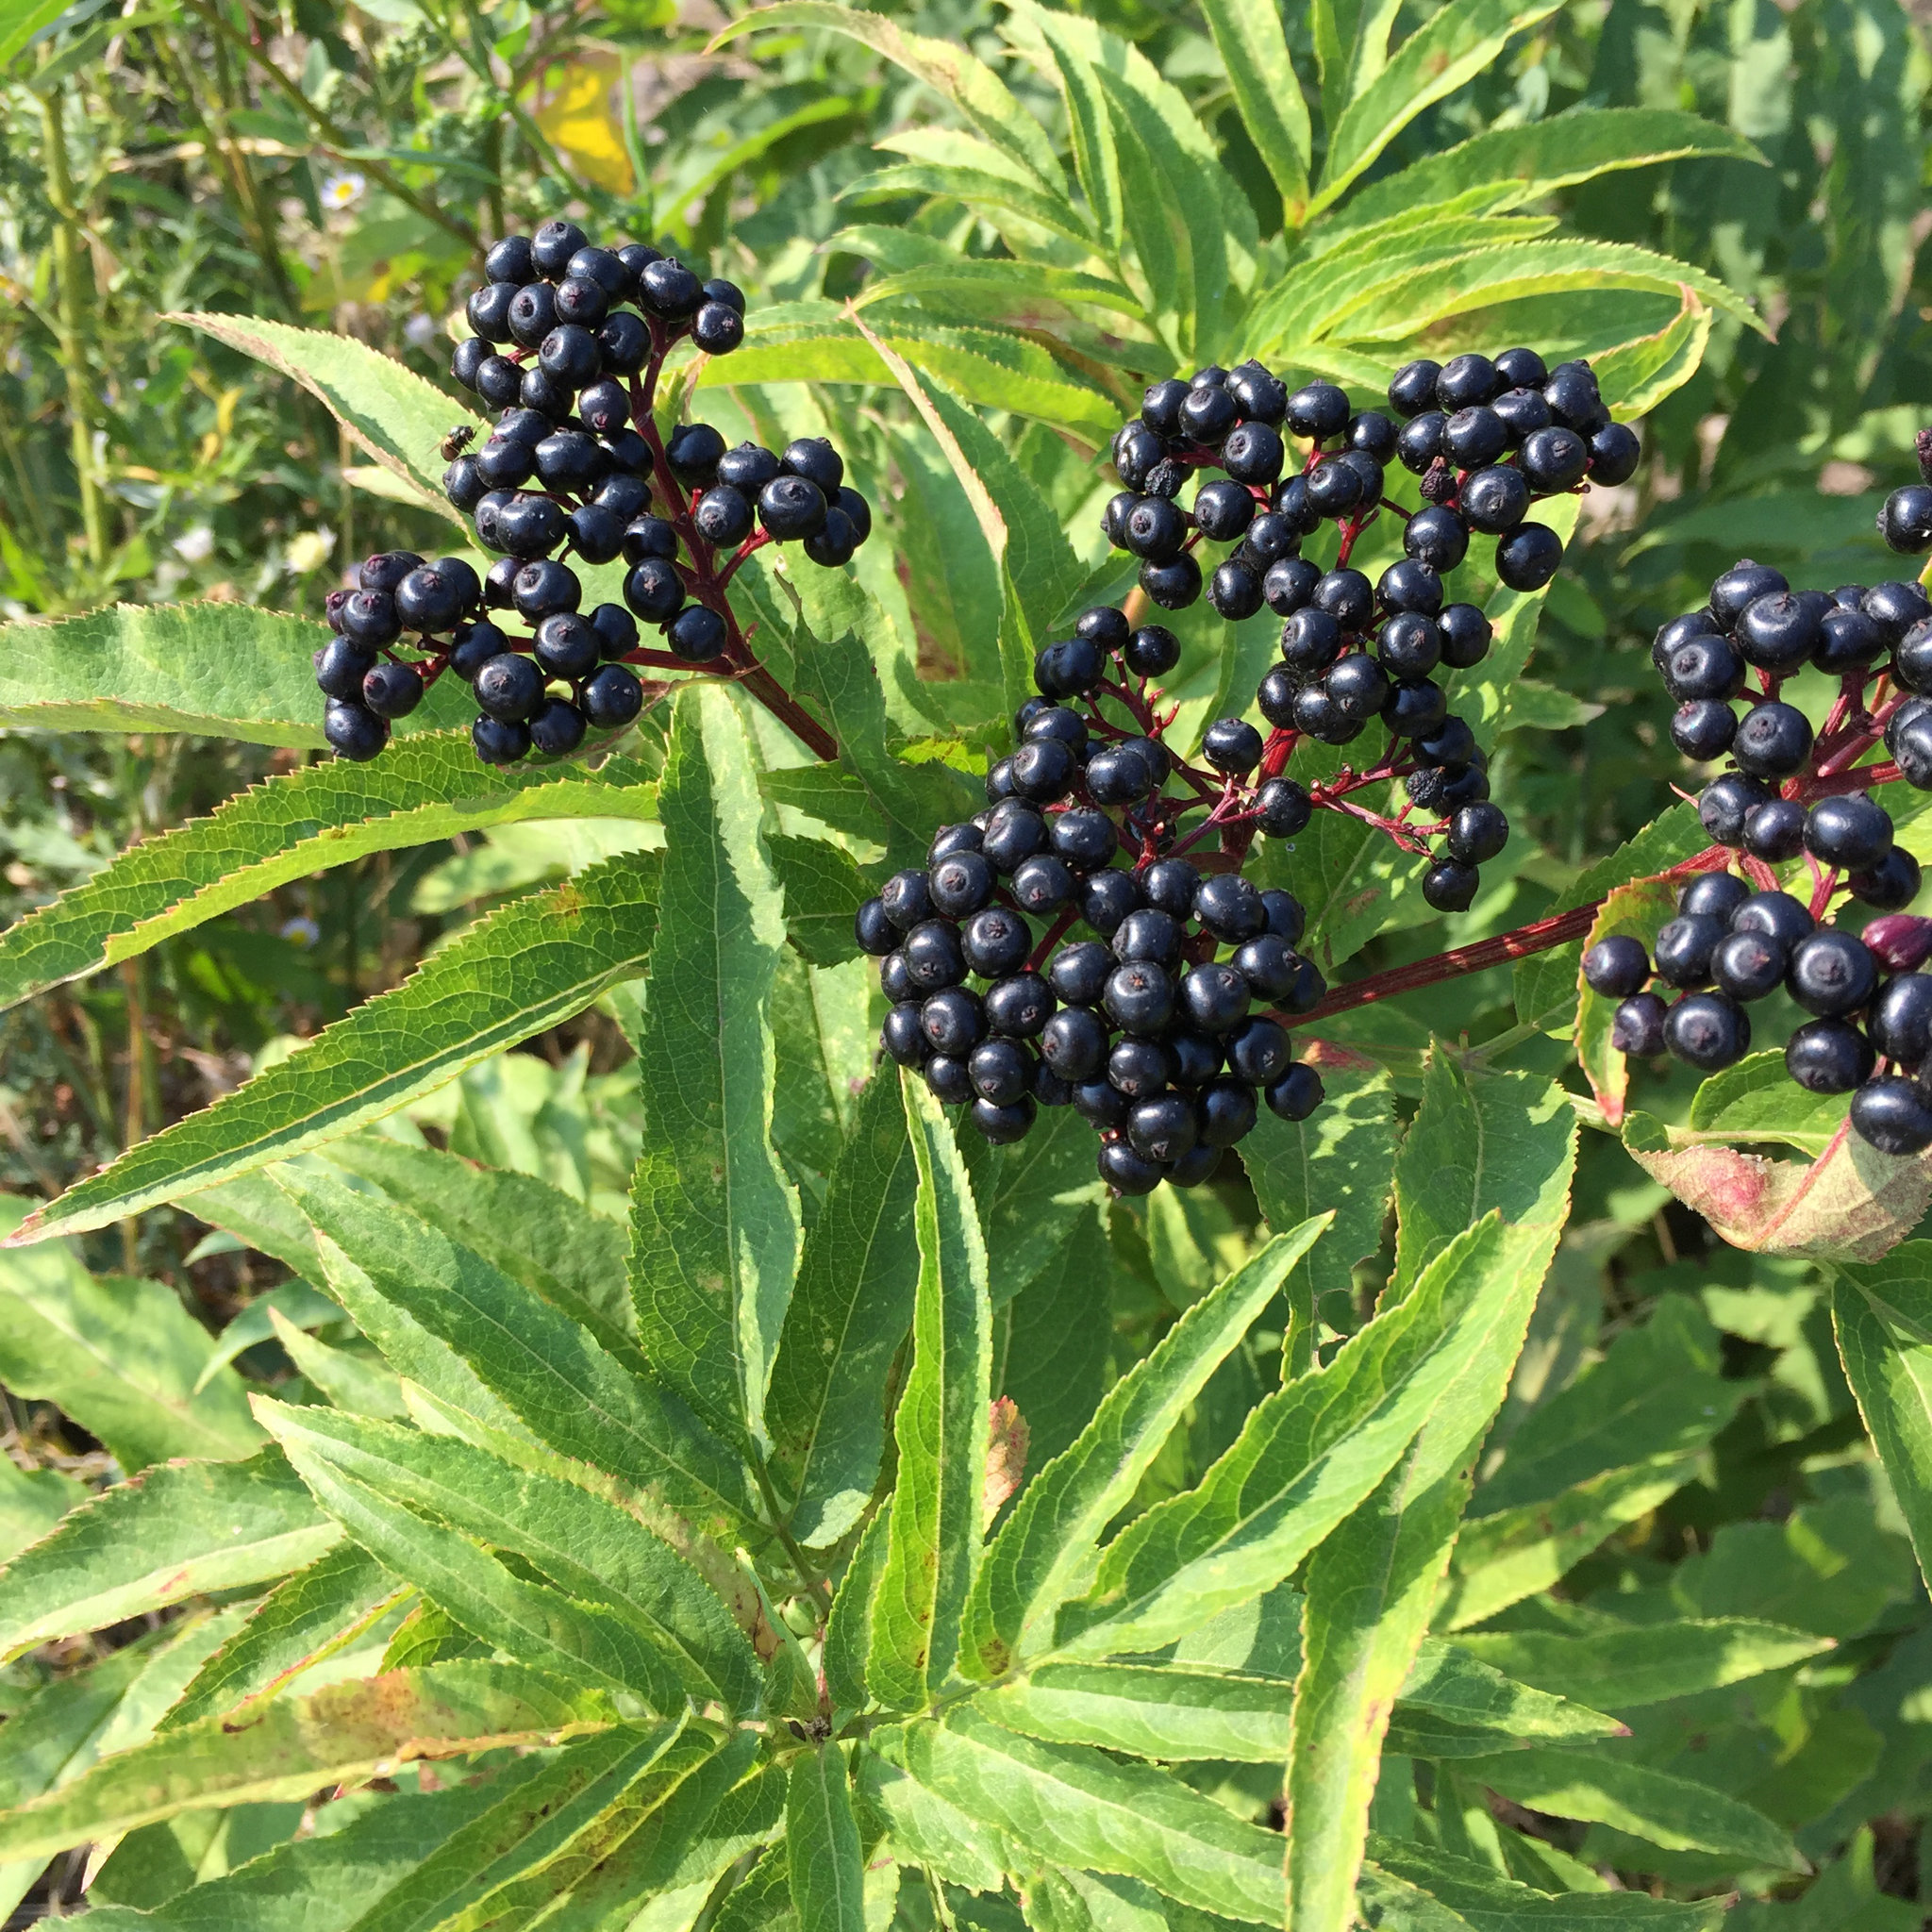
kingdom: Plantae
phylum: Tracheophyta
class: Magnoliopsida
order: Dipsacales
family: Viburnaceae
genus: Sambucus
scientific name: Sambucus ebulus
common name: Dwarf elder
